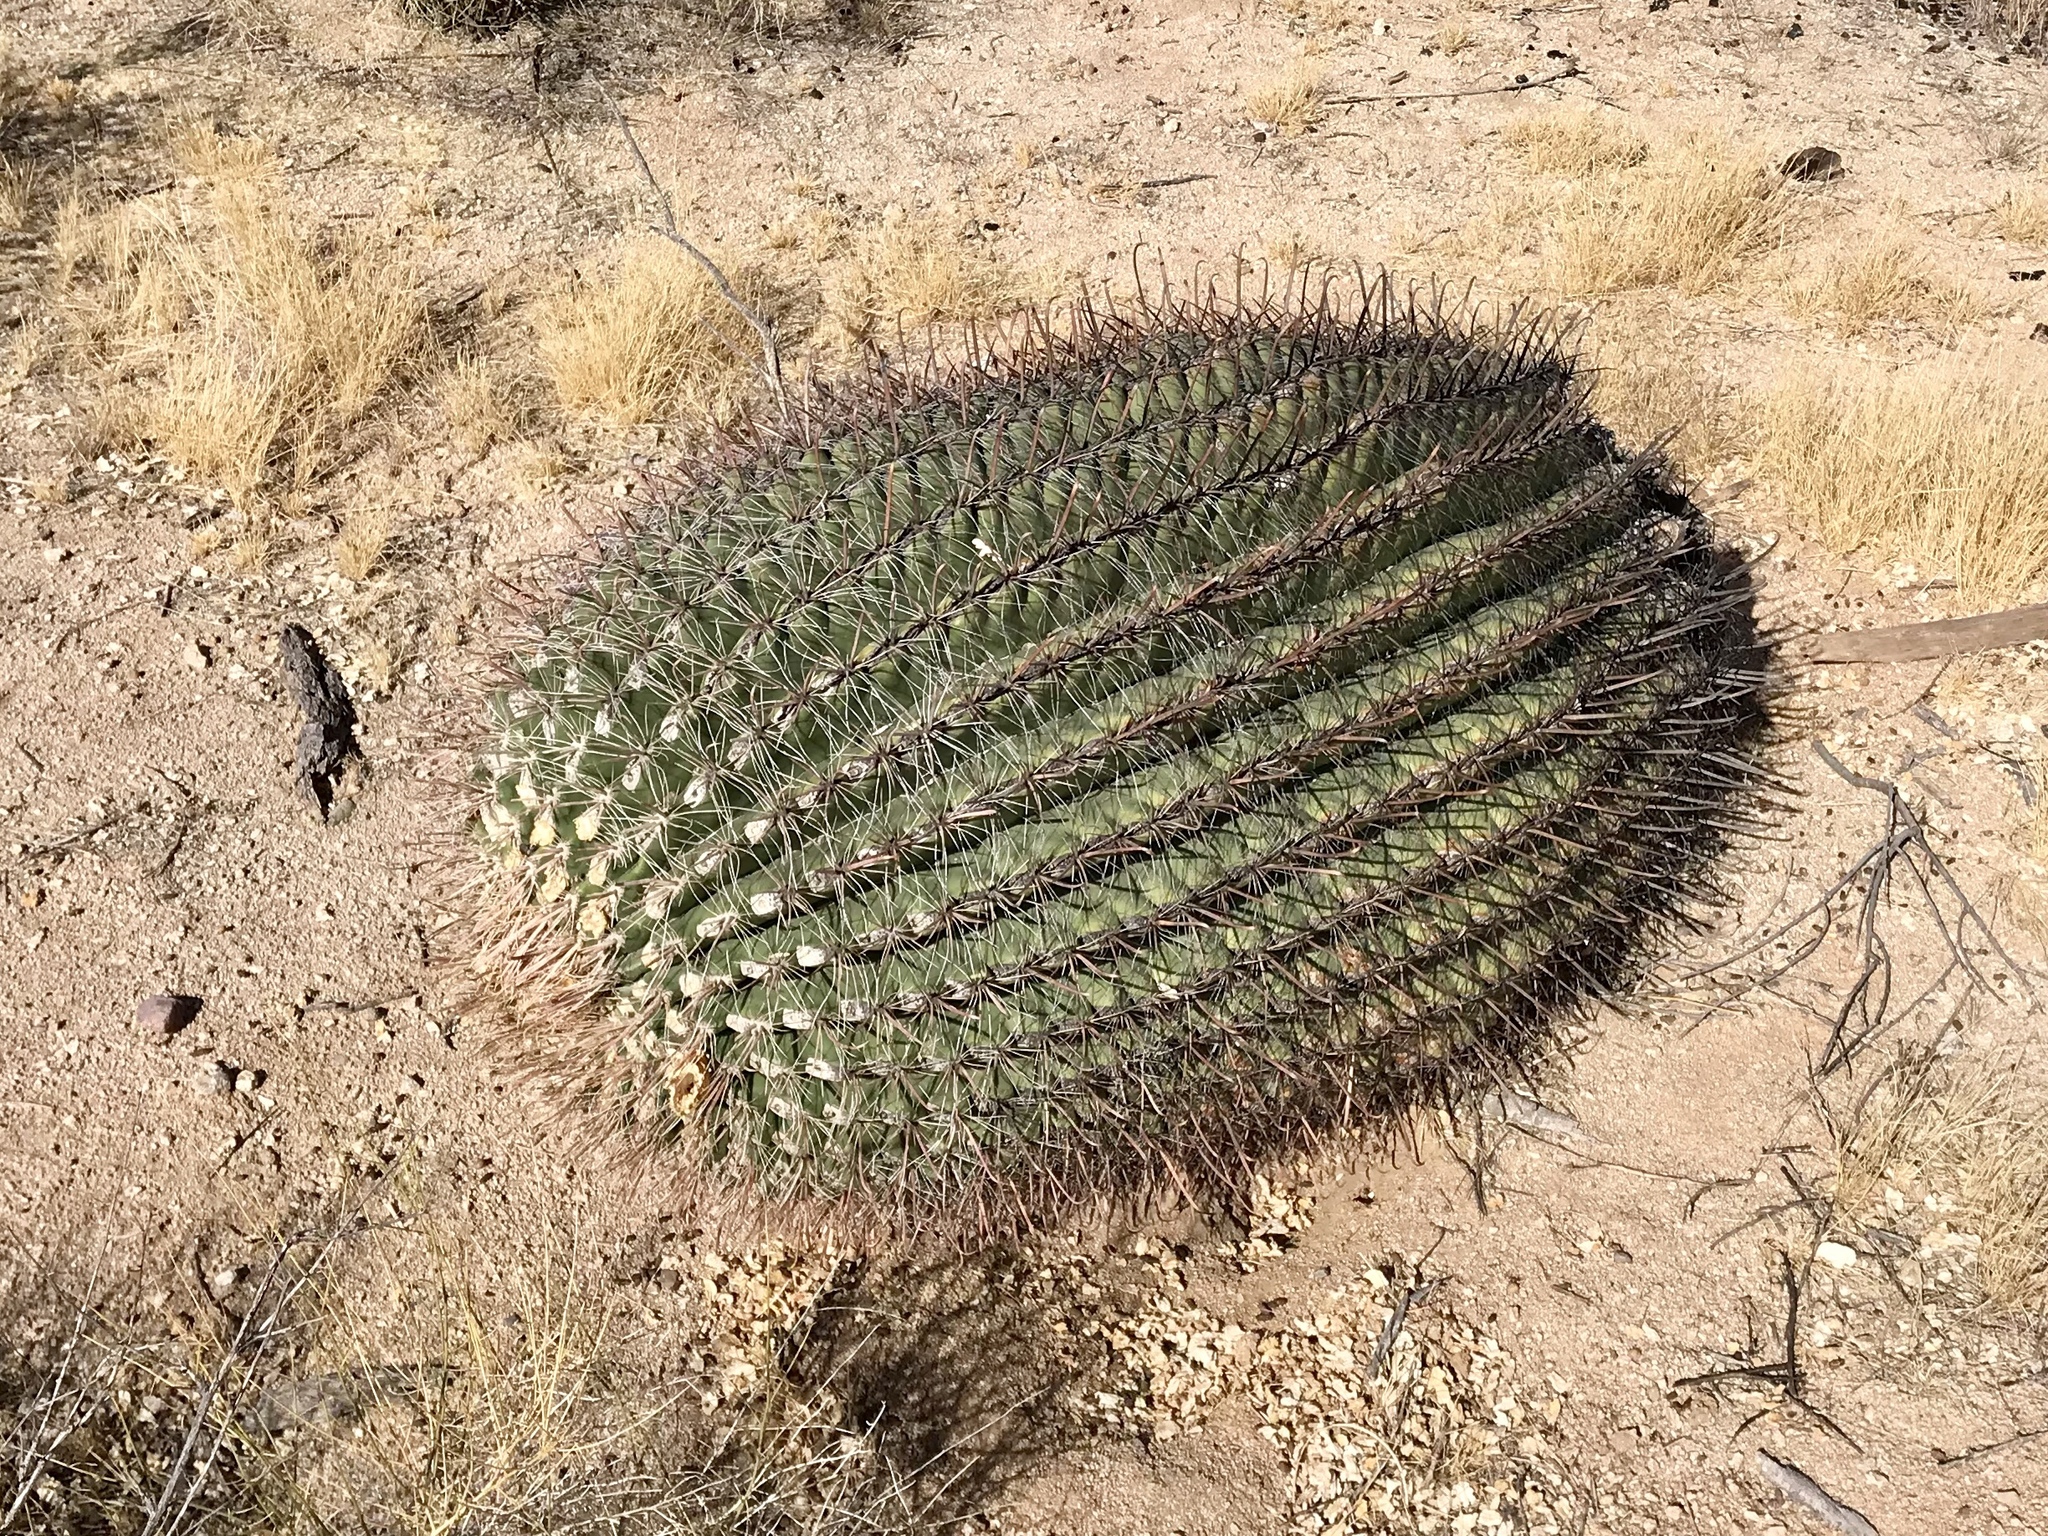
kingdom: Plantae
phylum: Tracheophyta
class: Magnoliopsida
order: Caryophyllales
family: Cactaceae
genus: Ferocactus
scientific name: Ferocactus wislizeni
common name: Candy barrel cactus
